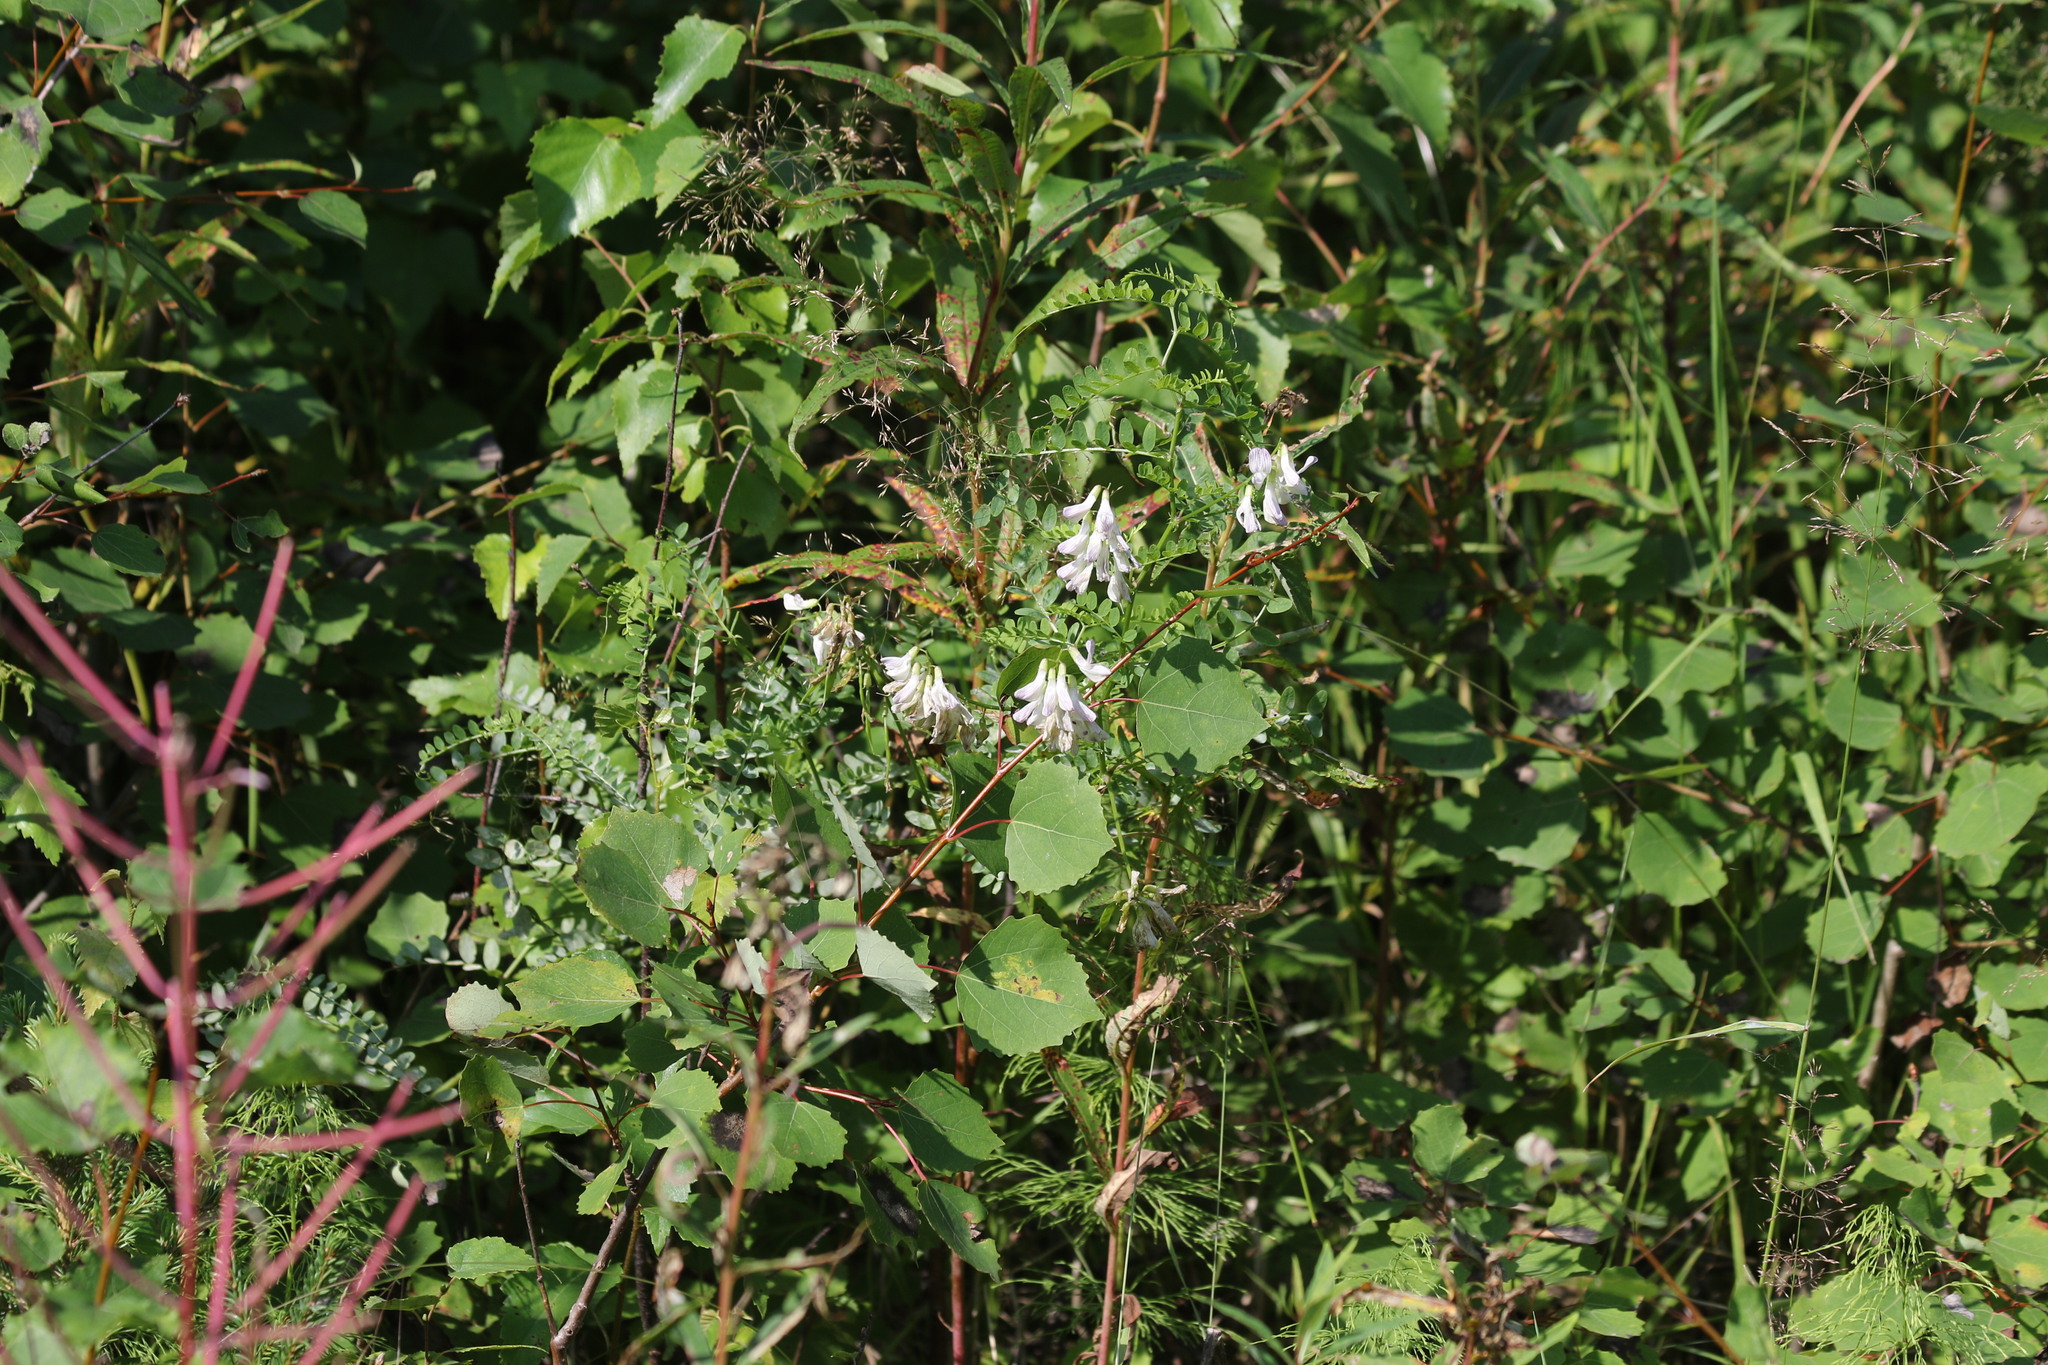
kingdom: Plantae
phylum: Tracheophyta
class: Magnoliopsida
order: Fabales
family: Fabaceae
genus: Vicia
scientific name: Vicia sylvatica
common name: Wood vetch
